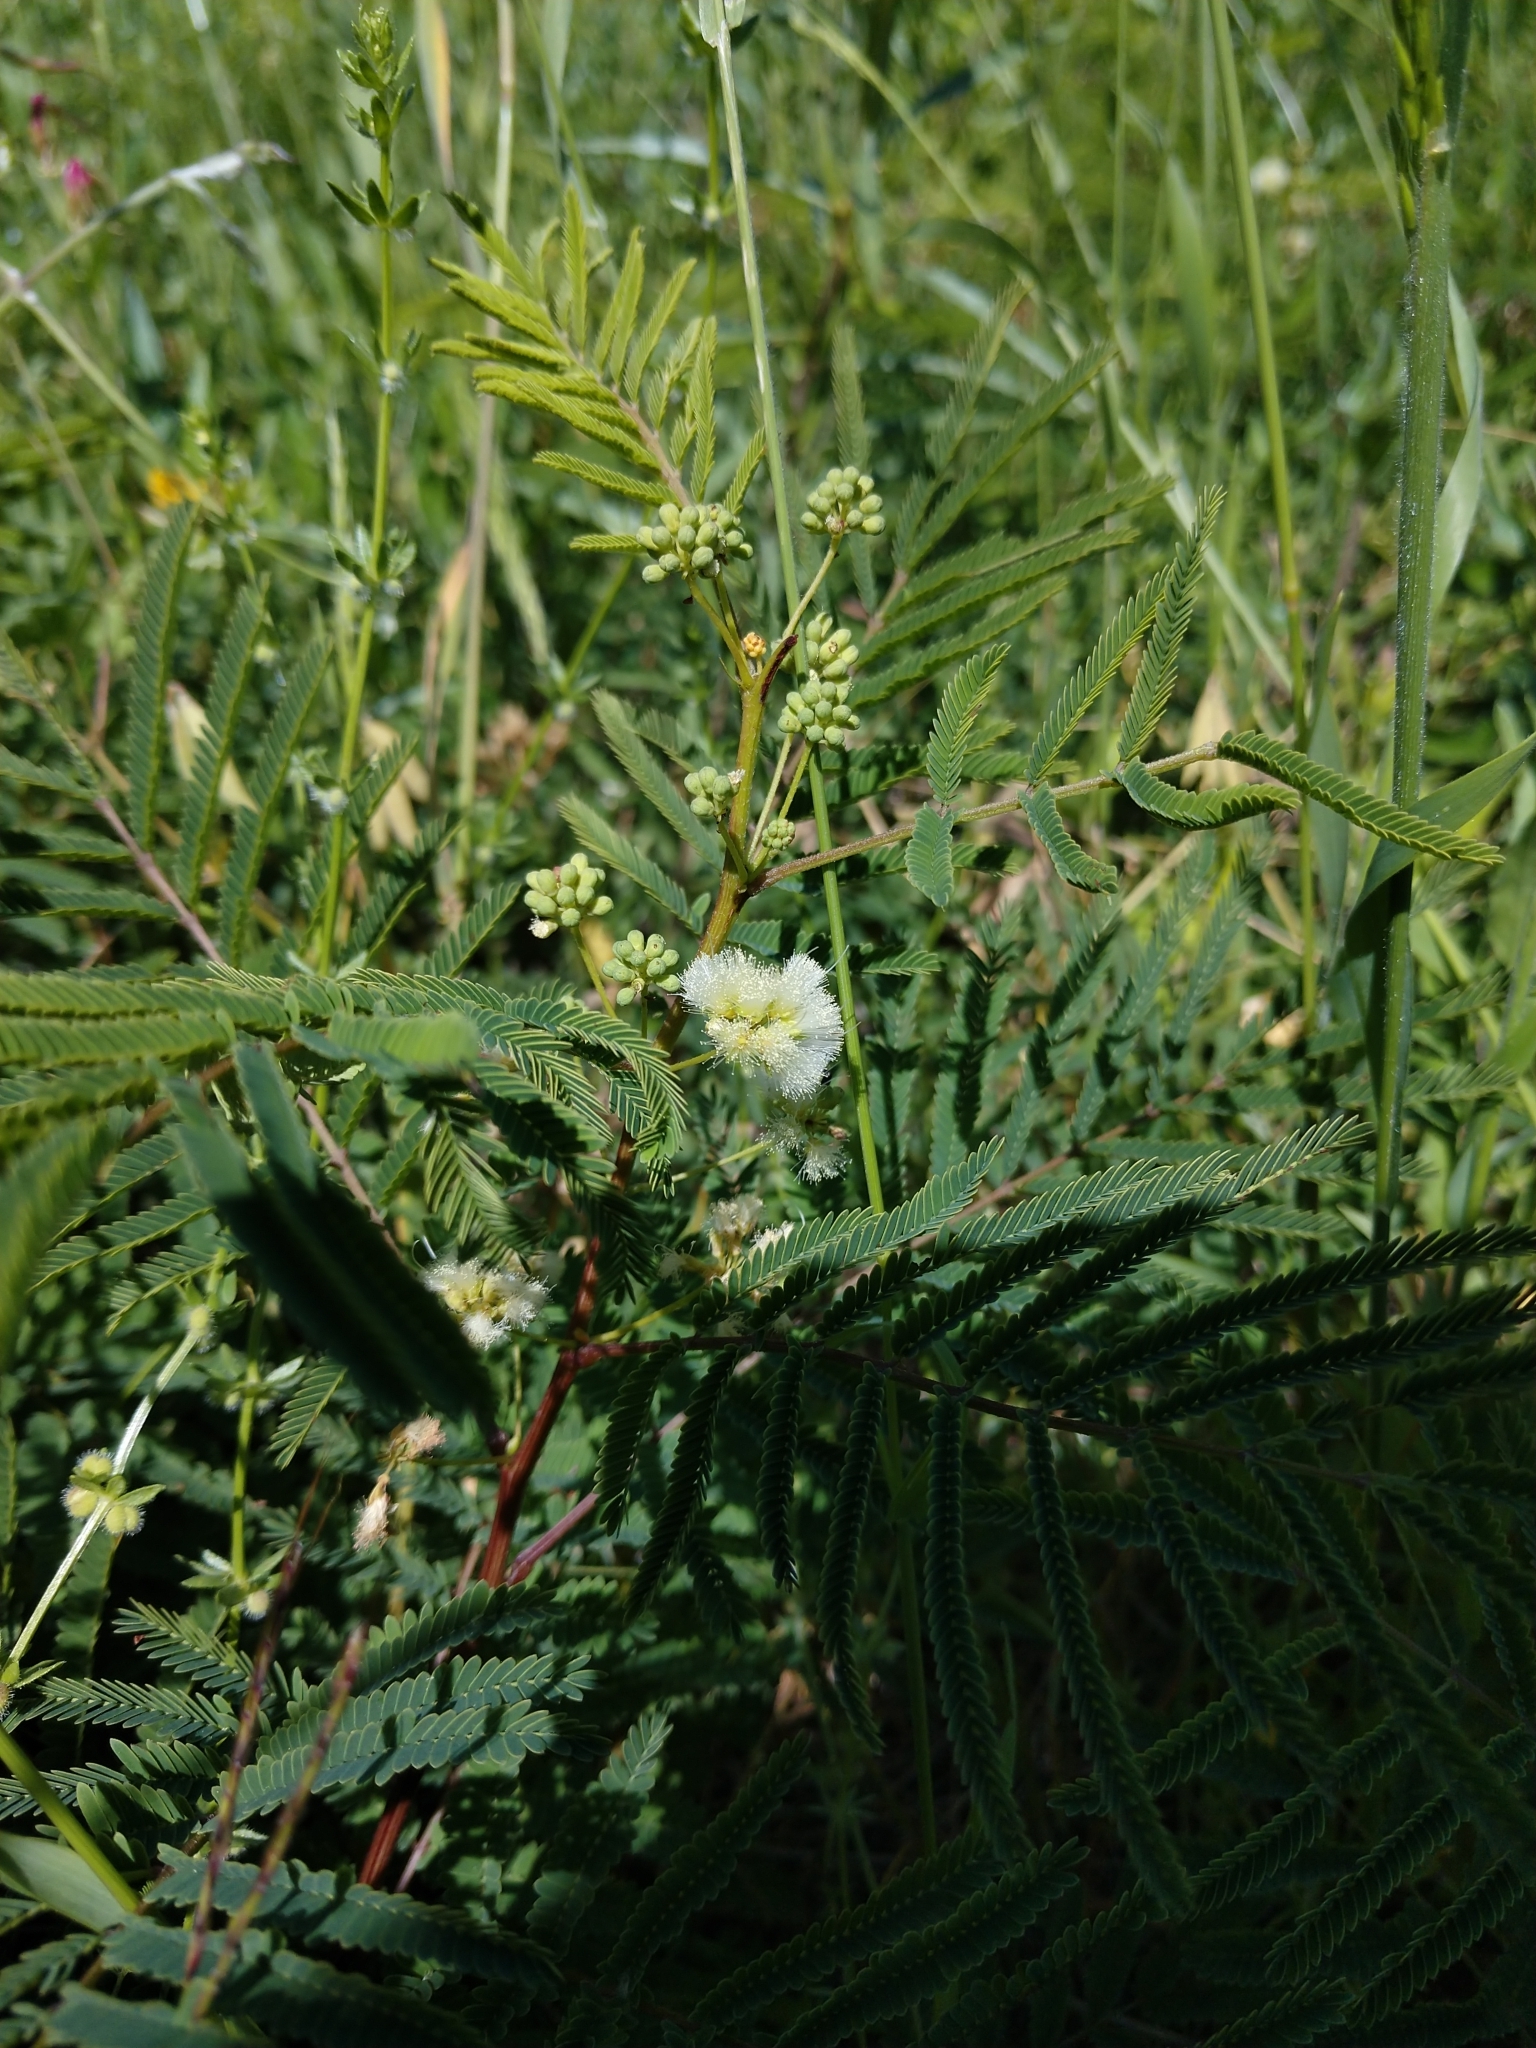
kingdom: Plantae
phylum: Tracheophyta
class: Magnoliopsida
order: Fabales
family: Fabaceae
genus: Acaciella
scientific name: Acaciella angustissima
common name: Prairie acacia
